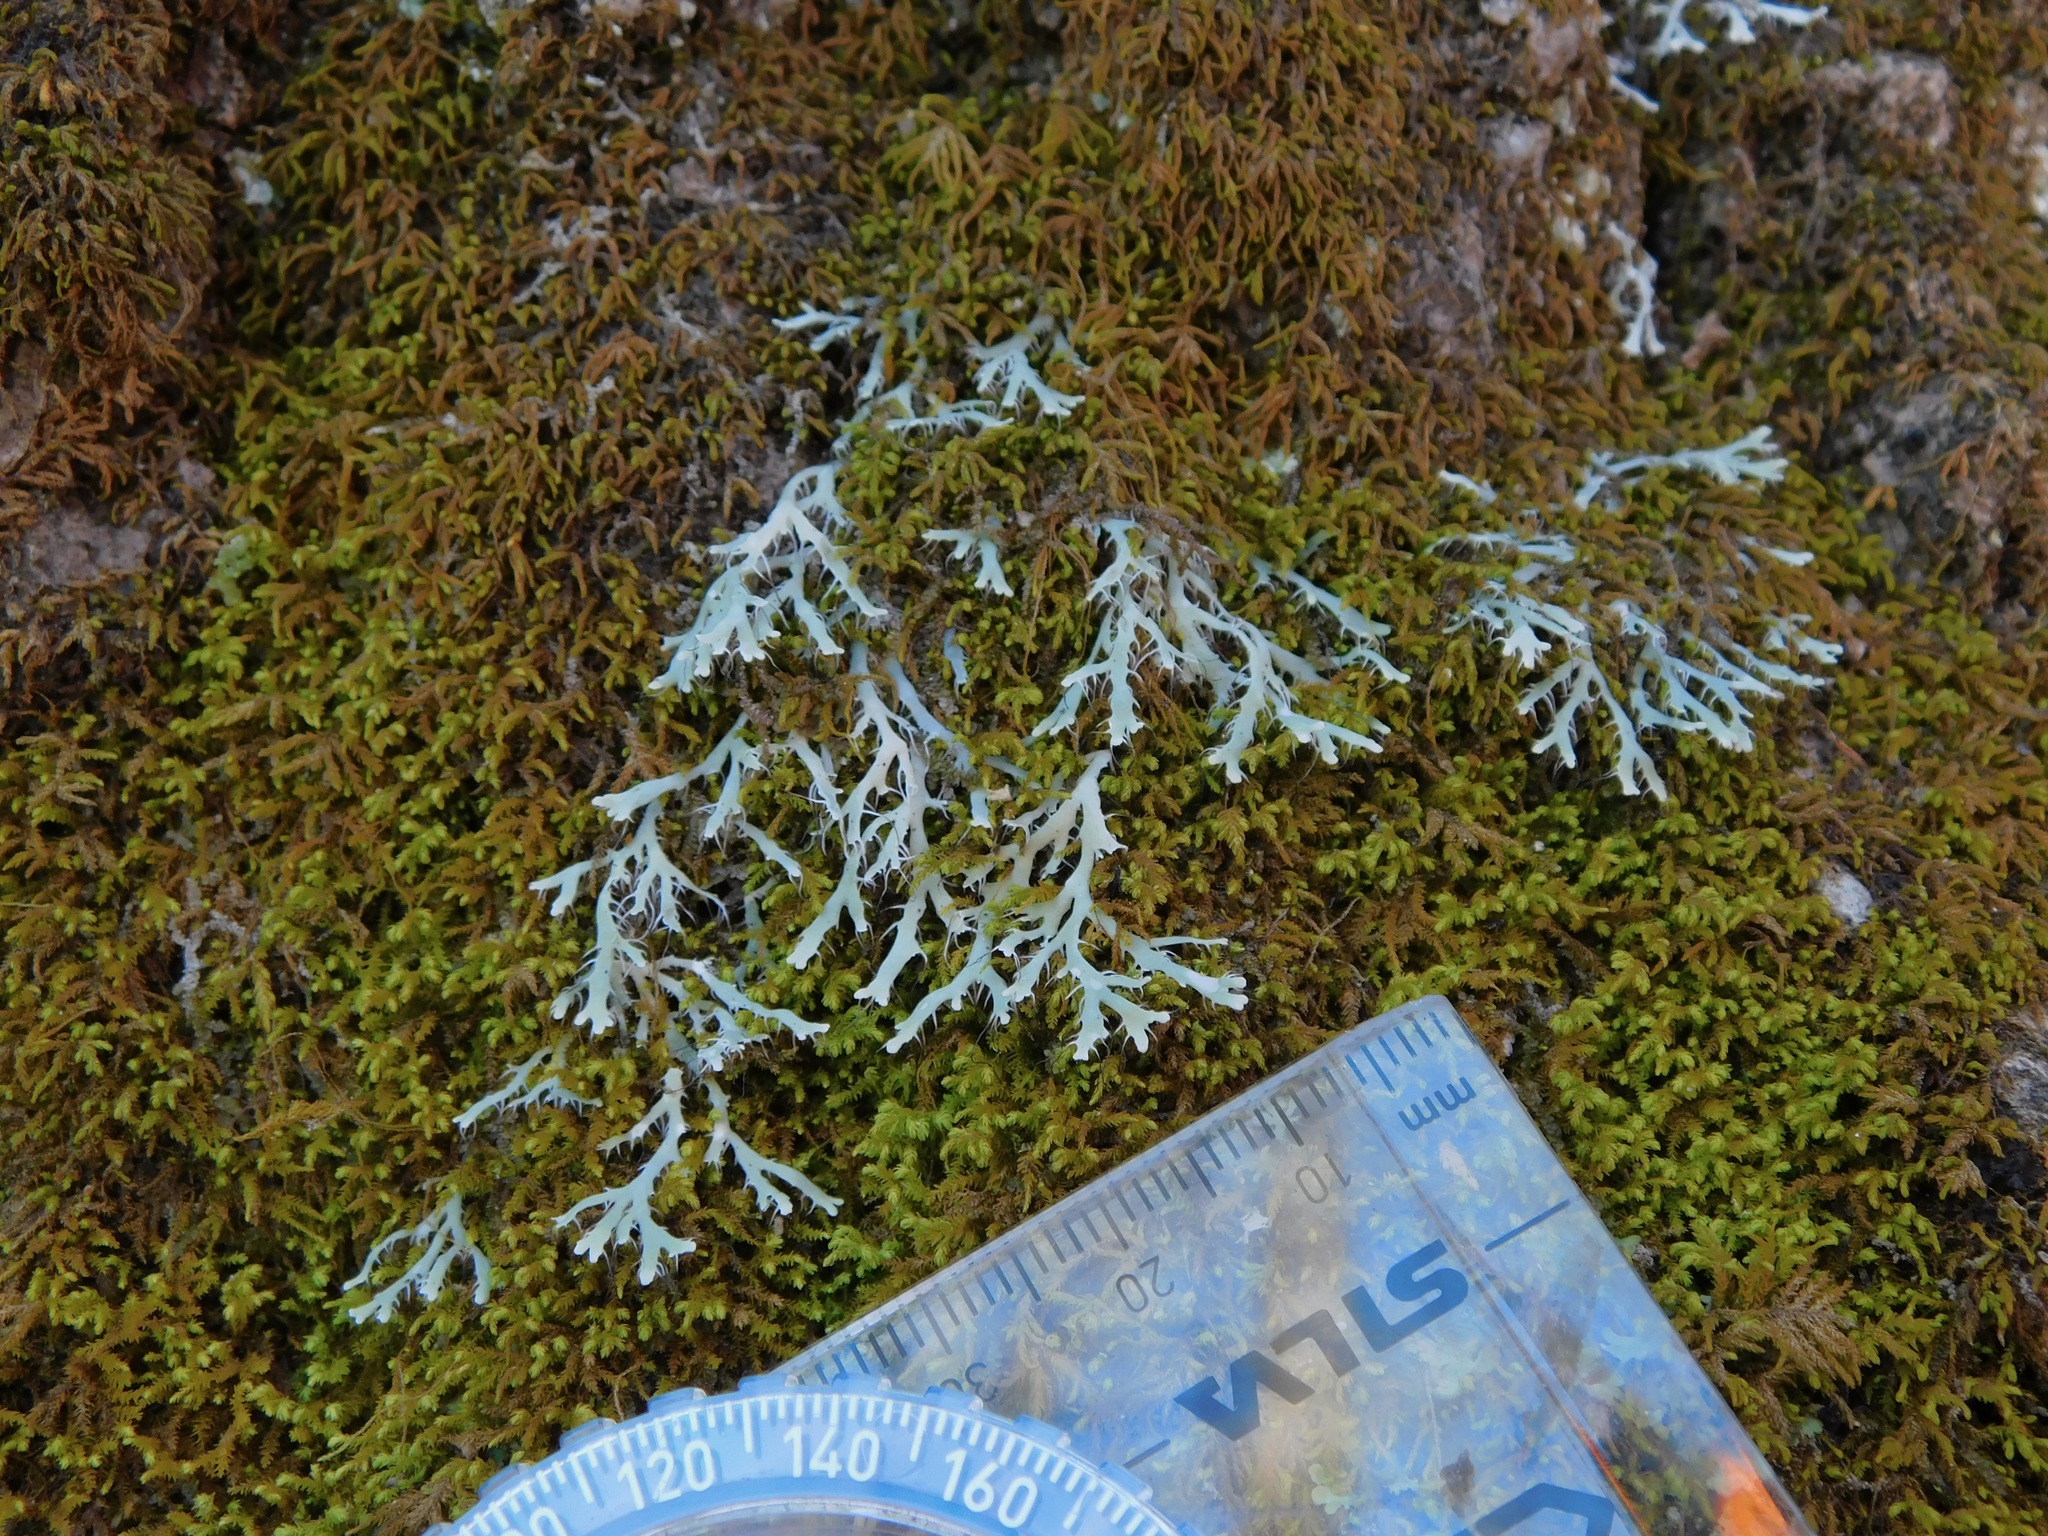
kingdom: Fungi
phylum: Ascomycota
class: Lecanoromycetes
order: Caliciales
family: Physciaceae
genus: Leucodermia
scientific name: Leucodermia appalachensis
